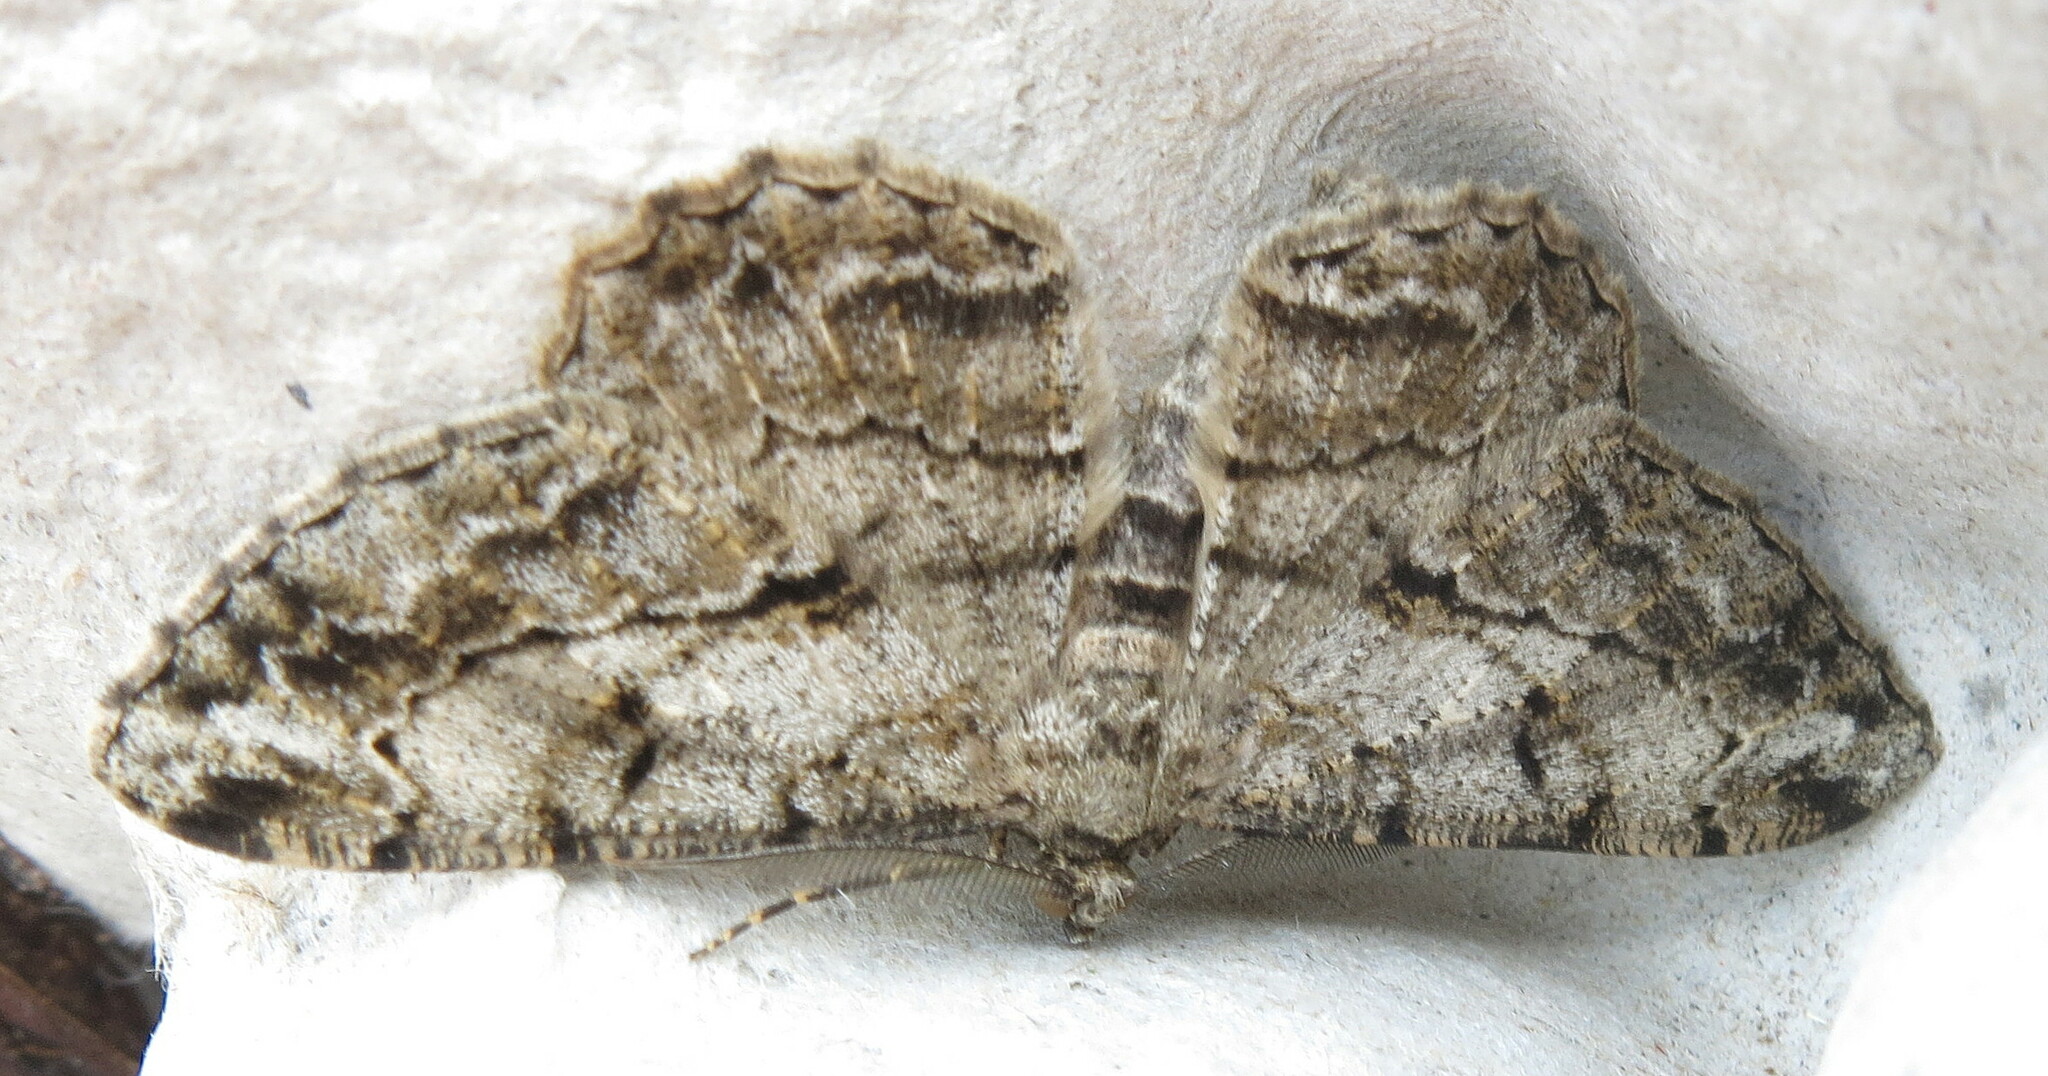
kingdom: Animalia
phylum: Arthropoda
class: Insecta
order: Lepidoptera
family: Geometridae
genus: Peribatodes
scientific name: Peribatodes rhomboidaria
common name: Willow beauty
